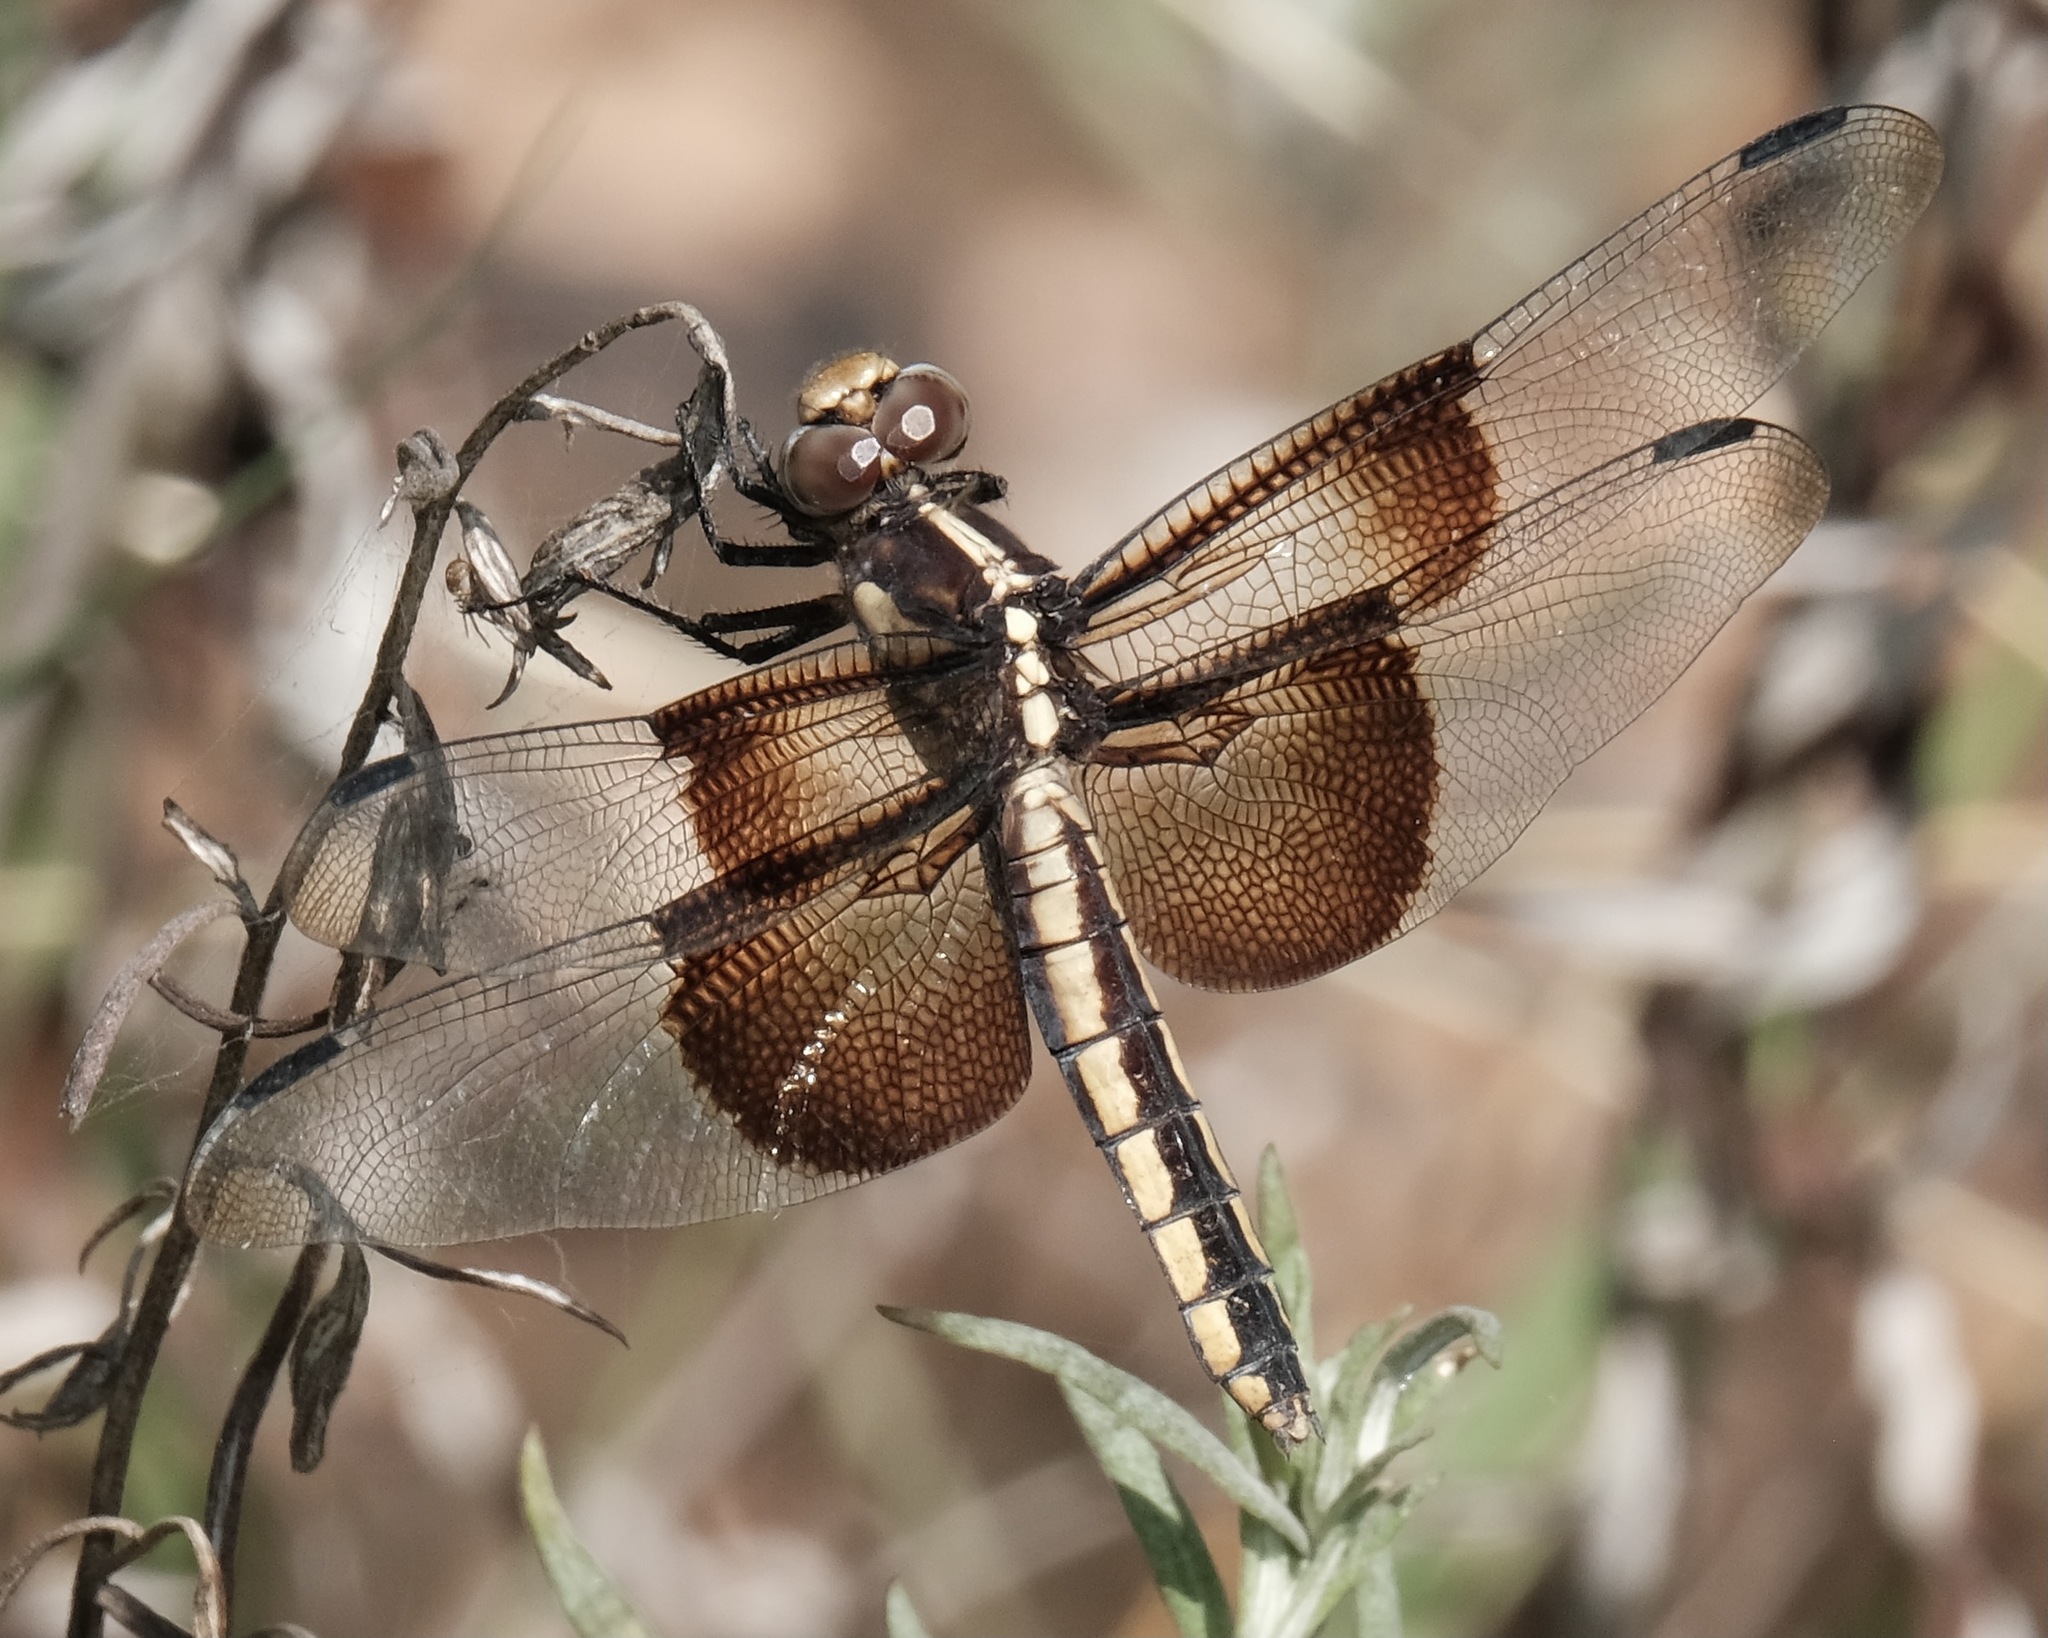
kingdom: Animalia
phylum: Arthropoda
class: Insecta
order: Odonata
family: Libellulidae
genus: Libellula
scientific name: Libellula luctuosa
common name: Widow skimmer
